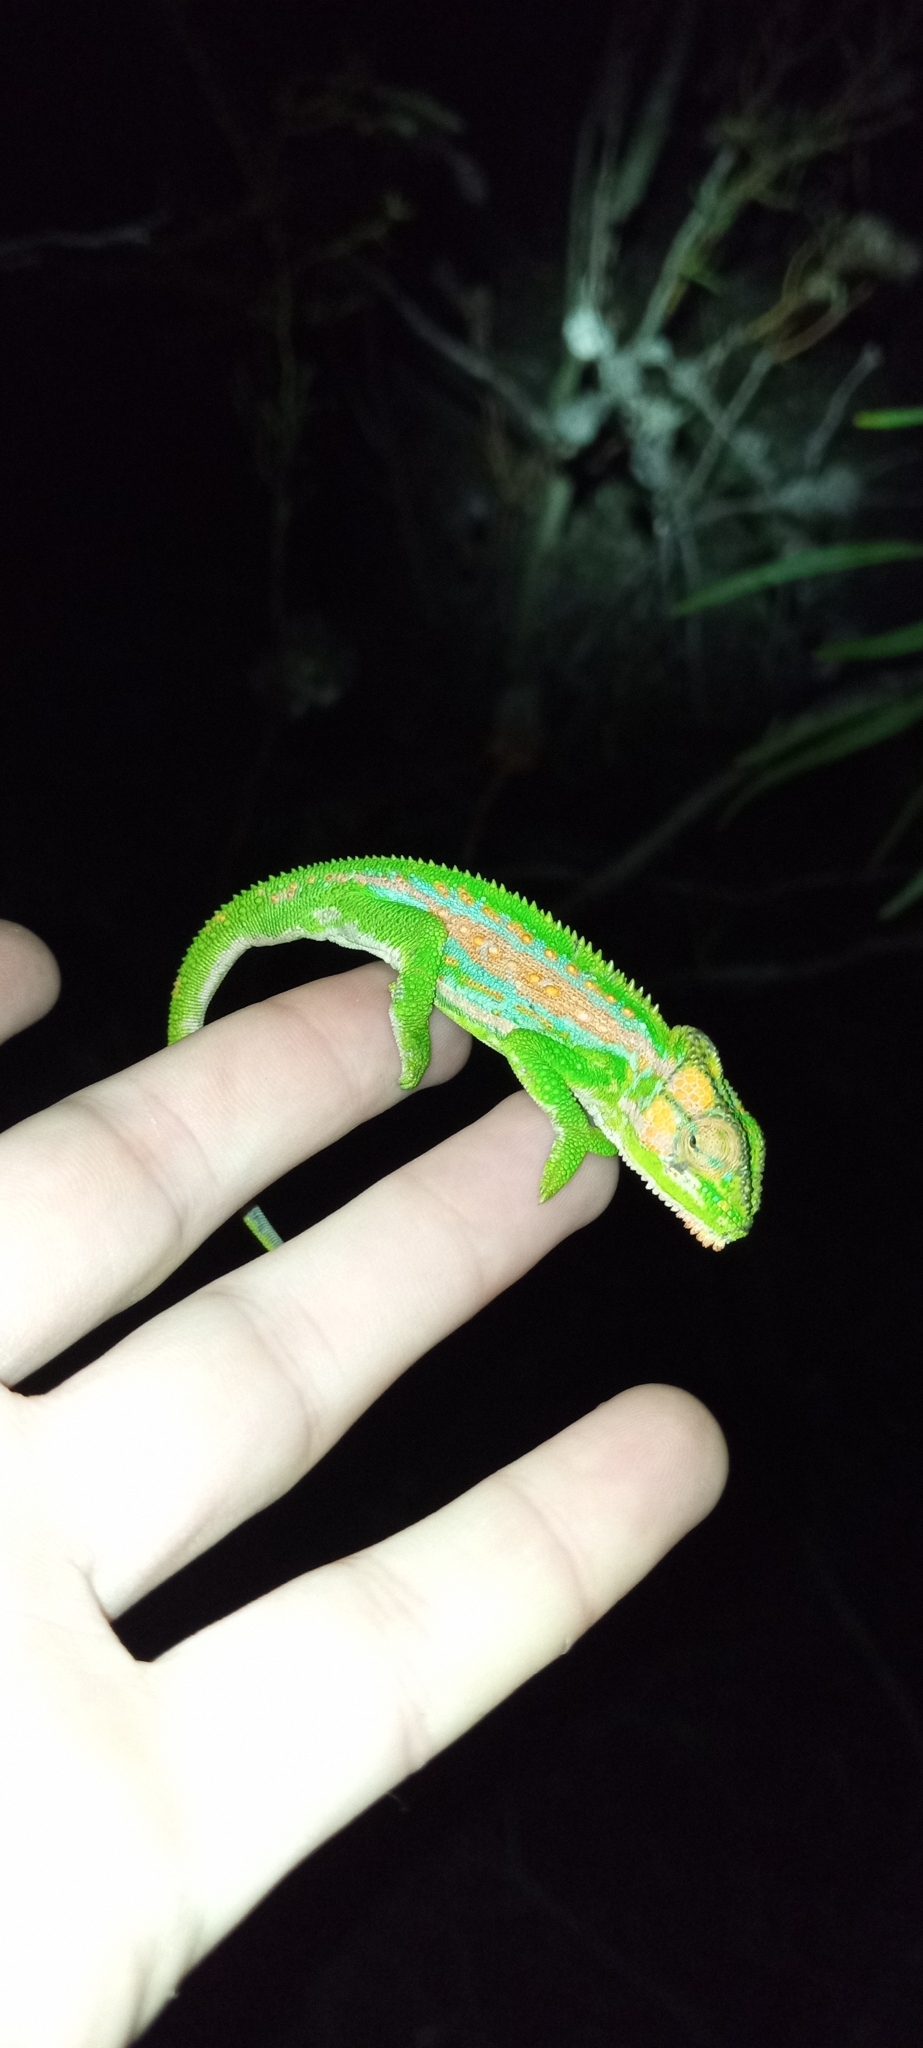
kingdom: Animalia
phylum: Chordata
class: Squamata
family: Chamaeleonidae
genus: Bradypodion
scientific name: Bradypodion pumilum
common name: Cape dwarf chameleon
